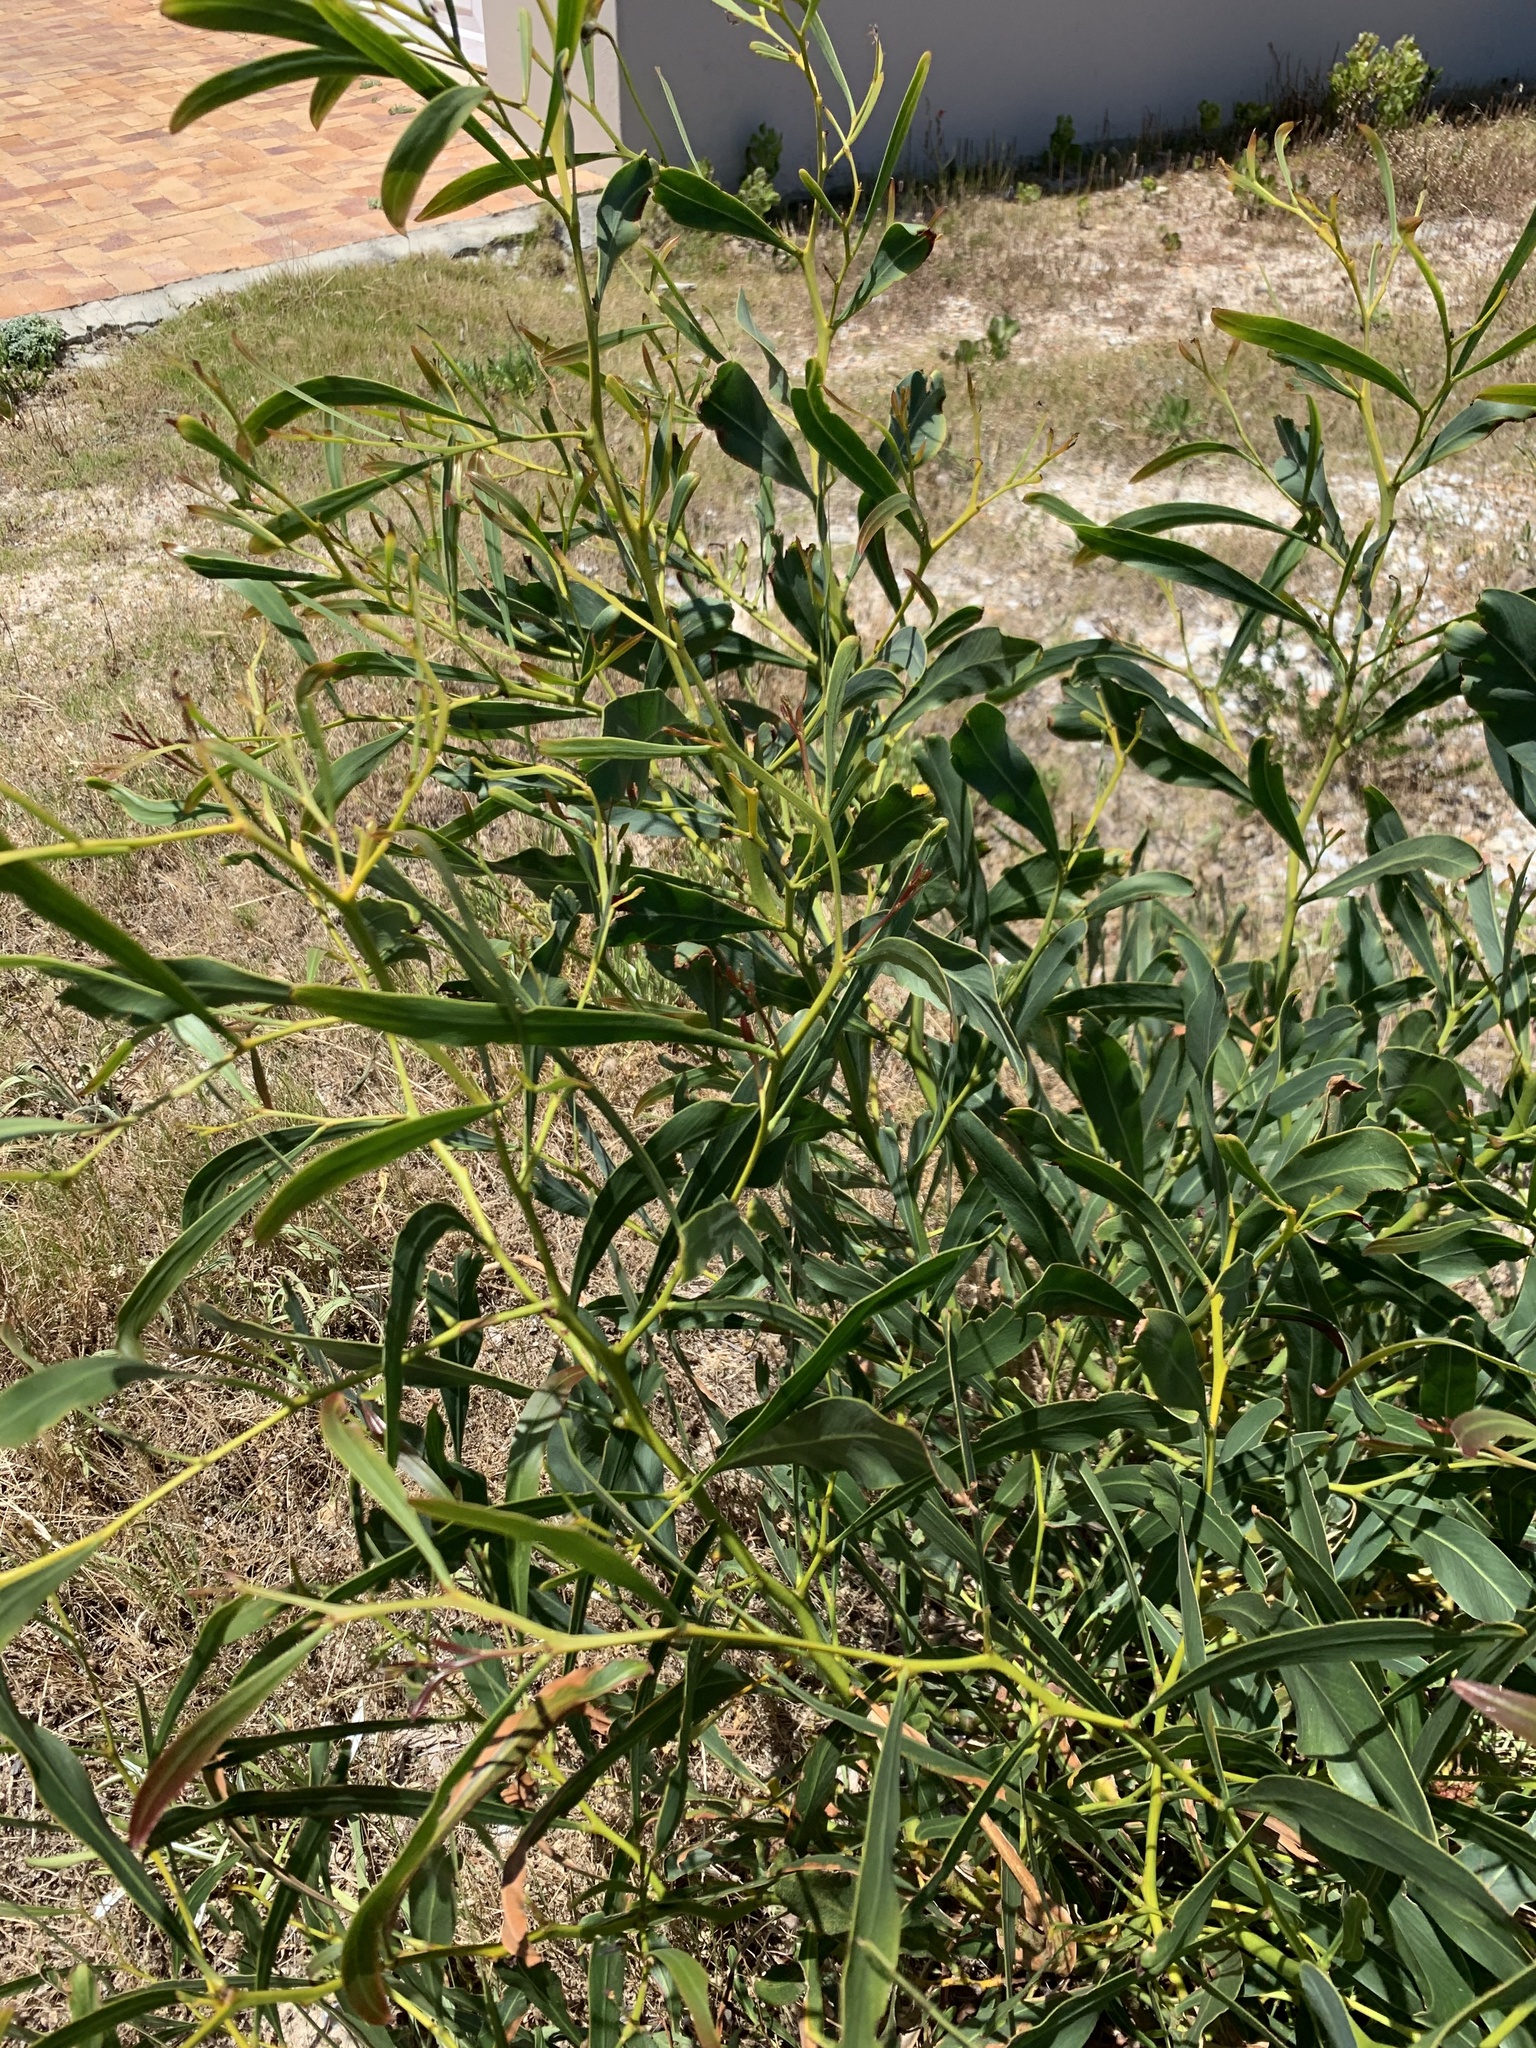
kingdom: Plantae
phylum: Tracheophyta
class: Magnoliopsida
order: Fabales
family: Fabaceae
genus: Acacia
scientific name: Acacia saligna
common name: Orange wattle
